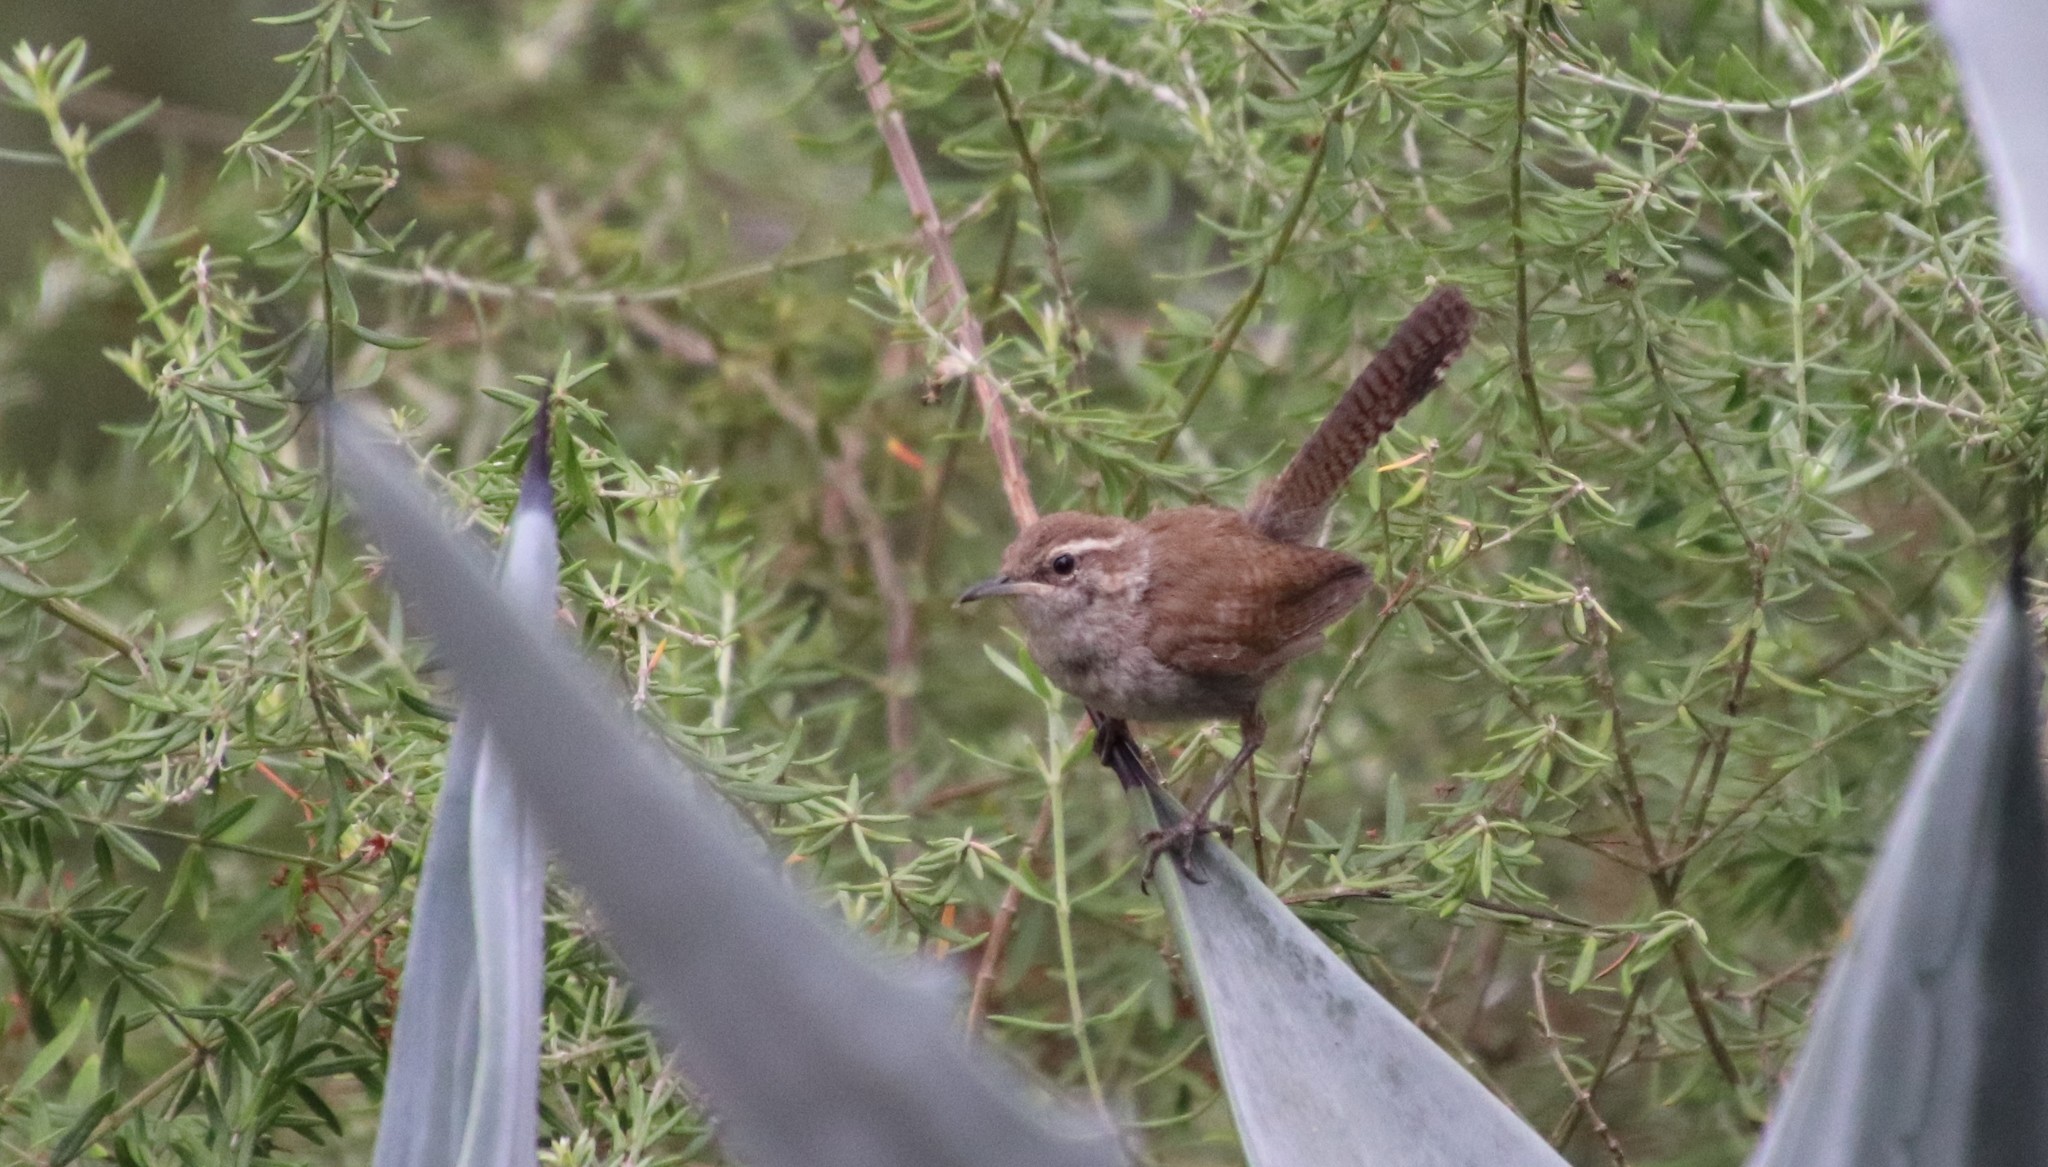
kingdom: Animalia
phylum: Chordata
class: Aves
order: Passeriformes
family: Troglodytidae
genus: Thryomanes
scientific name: Thryomanes bewickii
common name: Bewick's wren
